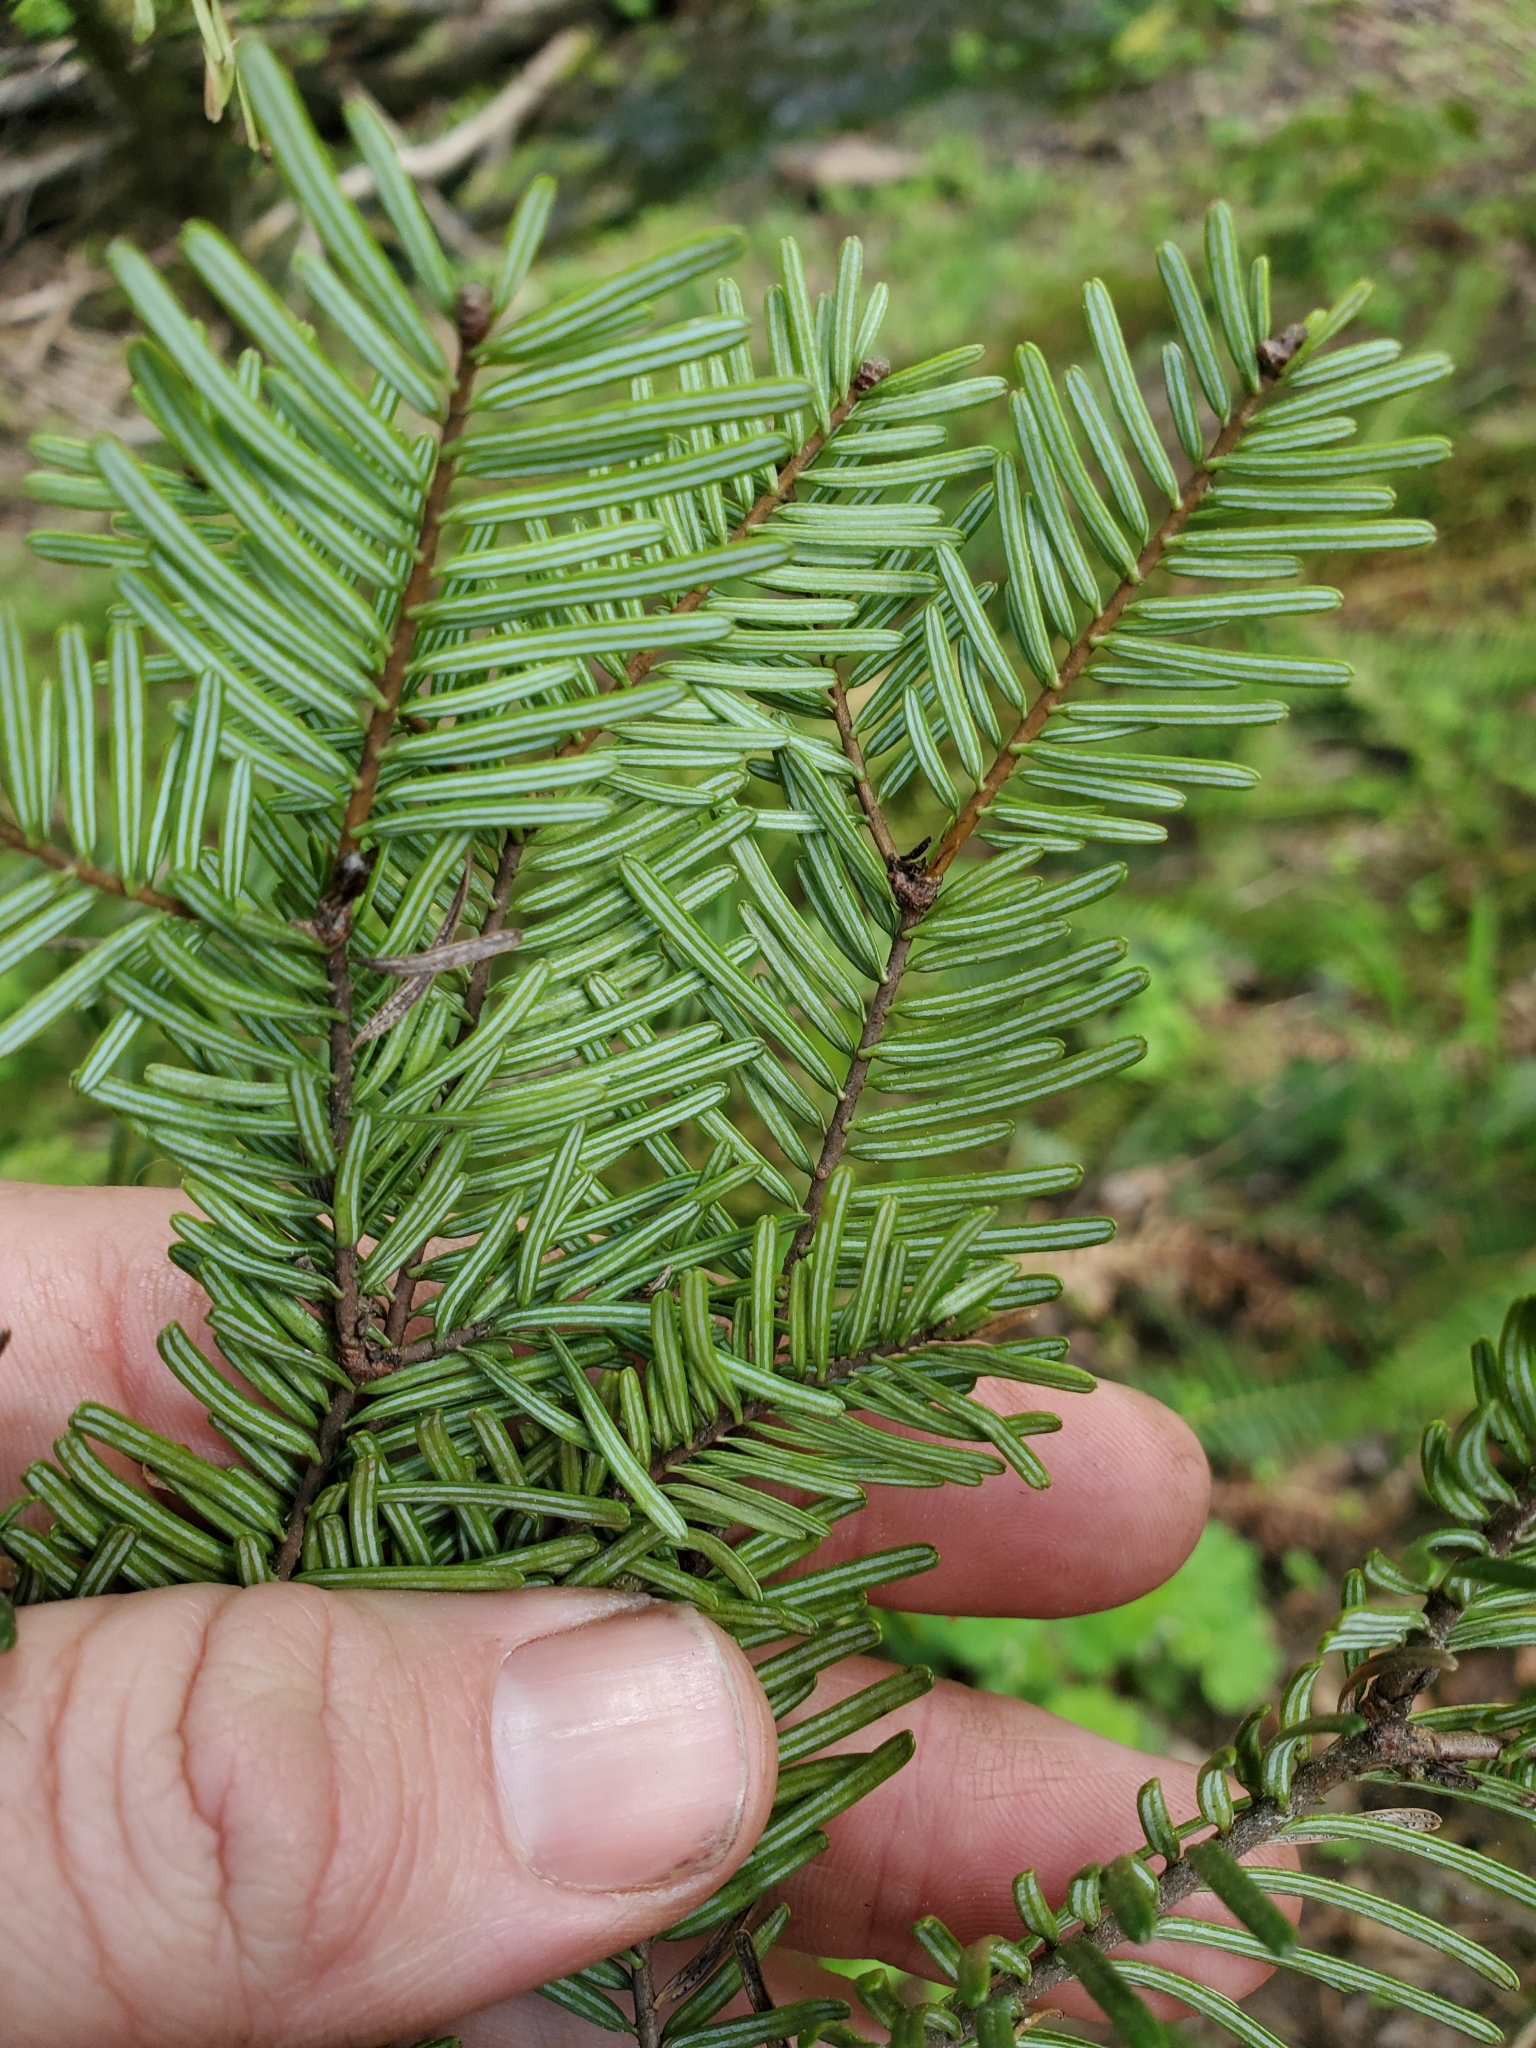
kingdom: Plantae
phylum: Tracheophyta
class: Pinopsida
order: Pinales
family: Pinaceae
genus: Abies
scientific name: Abies grandis
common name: Giant fir
